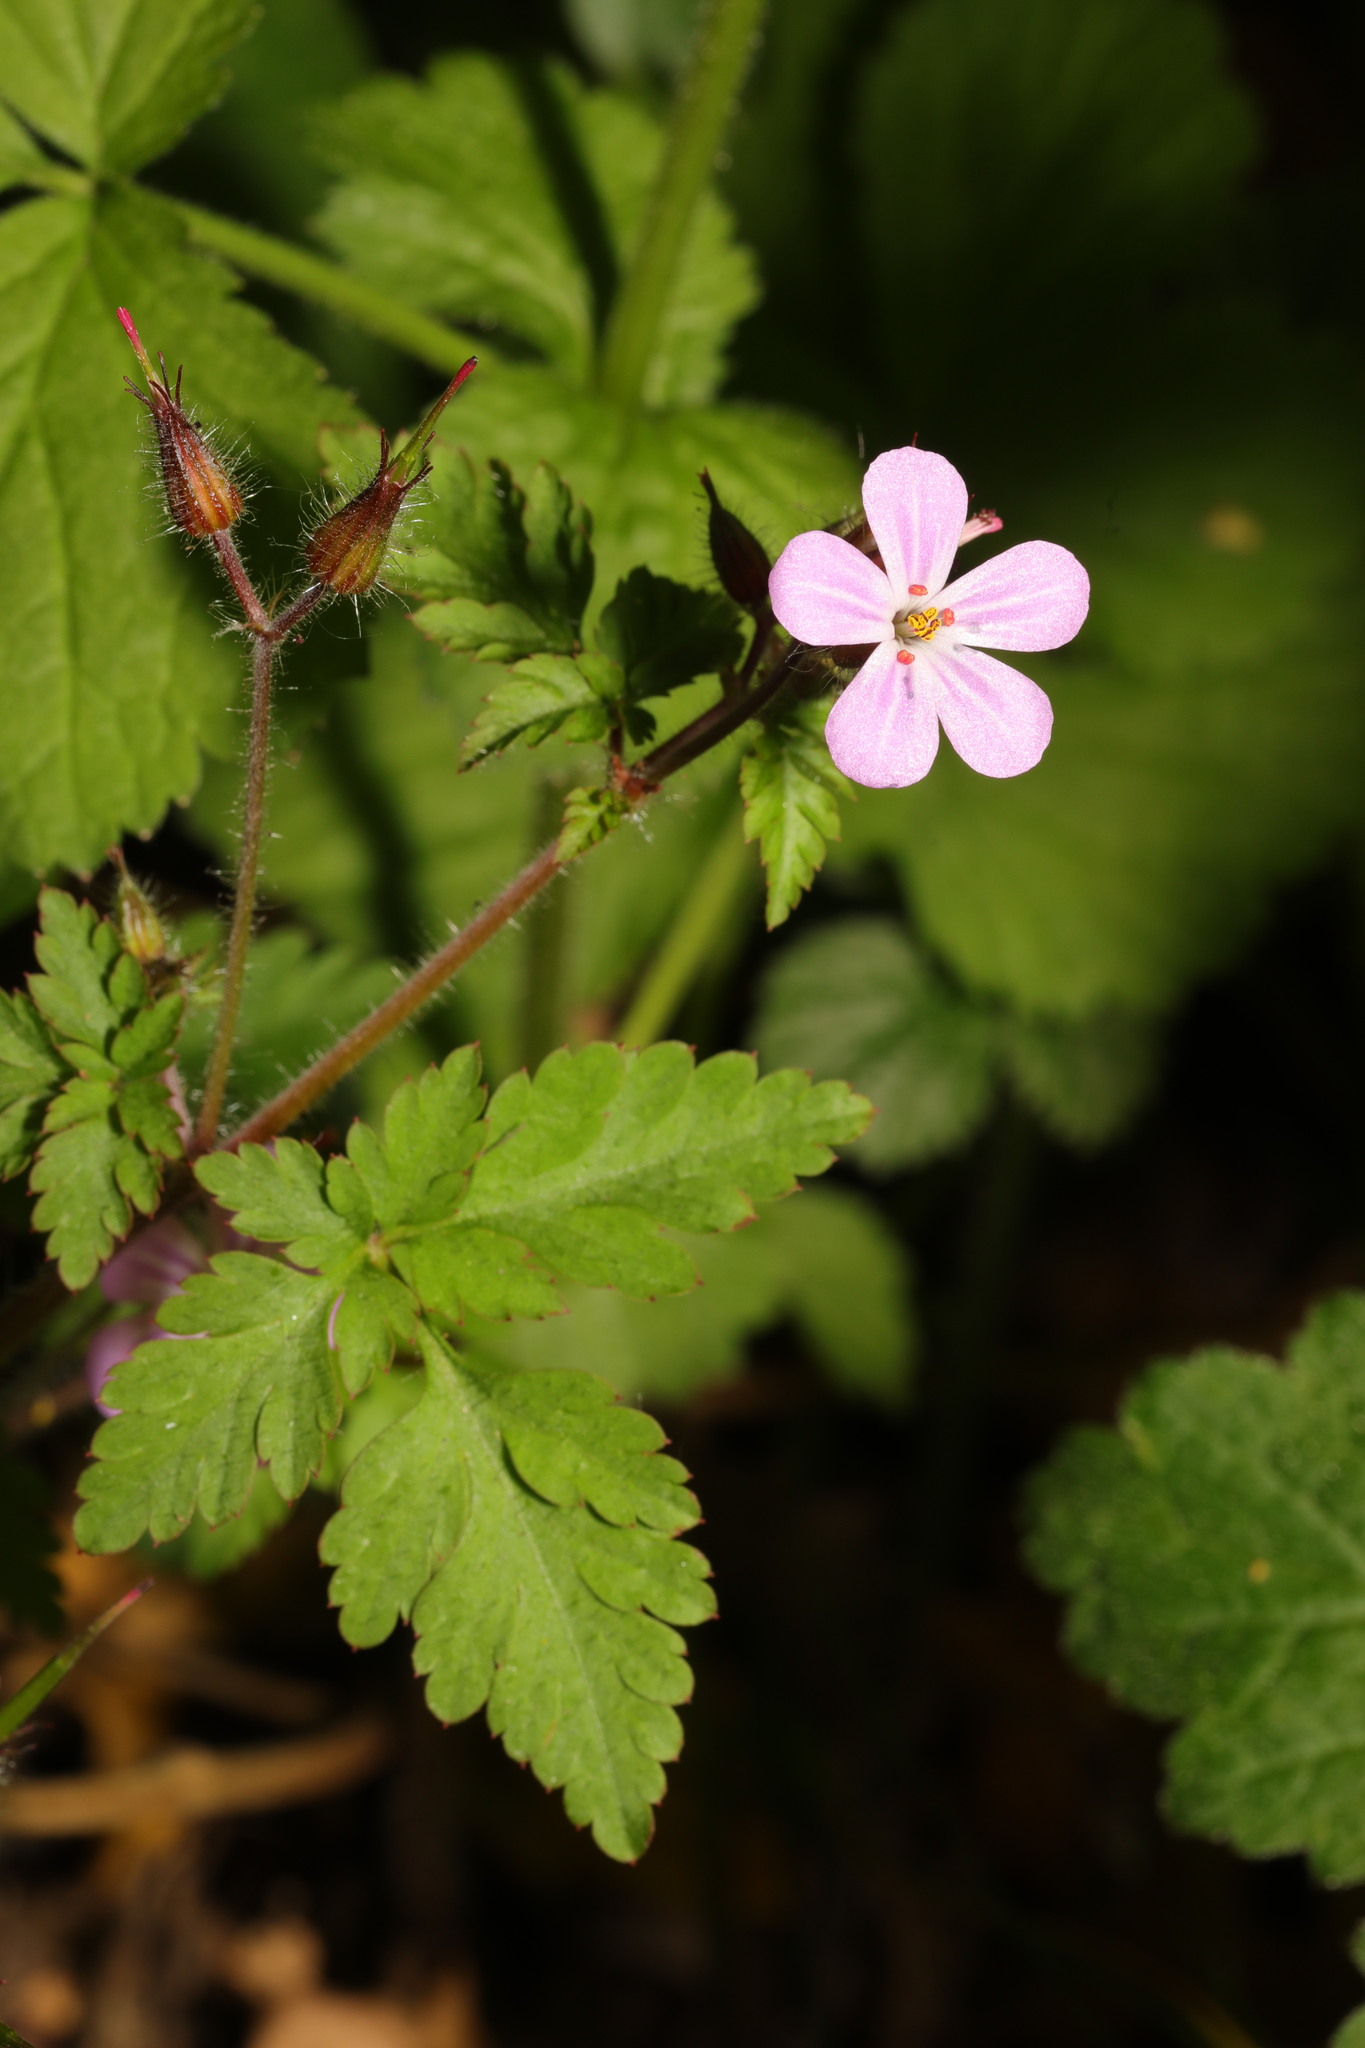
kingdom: Plantae
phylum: Tracheophyta
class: Magnoliopsida
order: Geraniales
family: Geraniaceae
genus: Geranium
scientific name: Geranium robertianum
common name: Herb-robert
